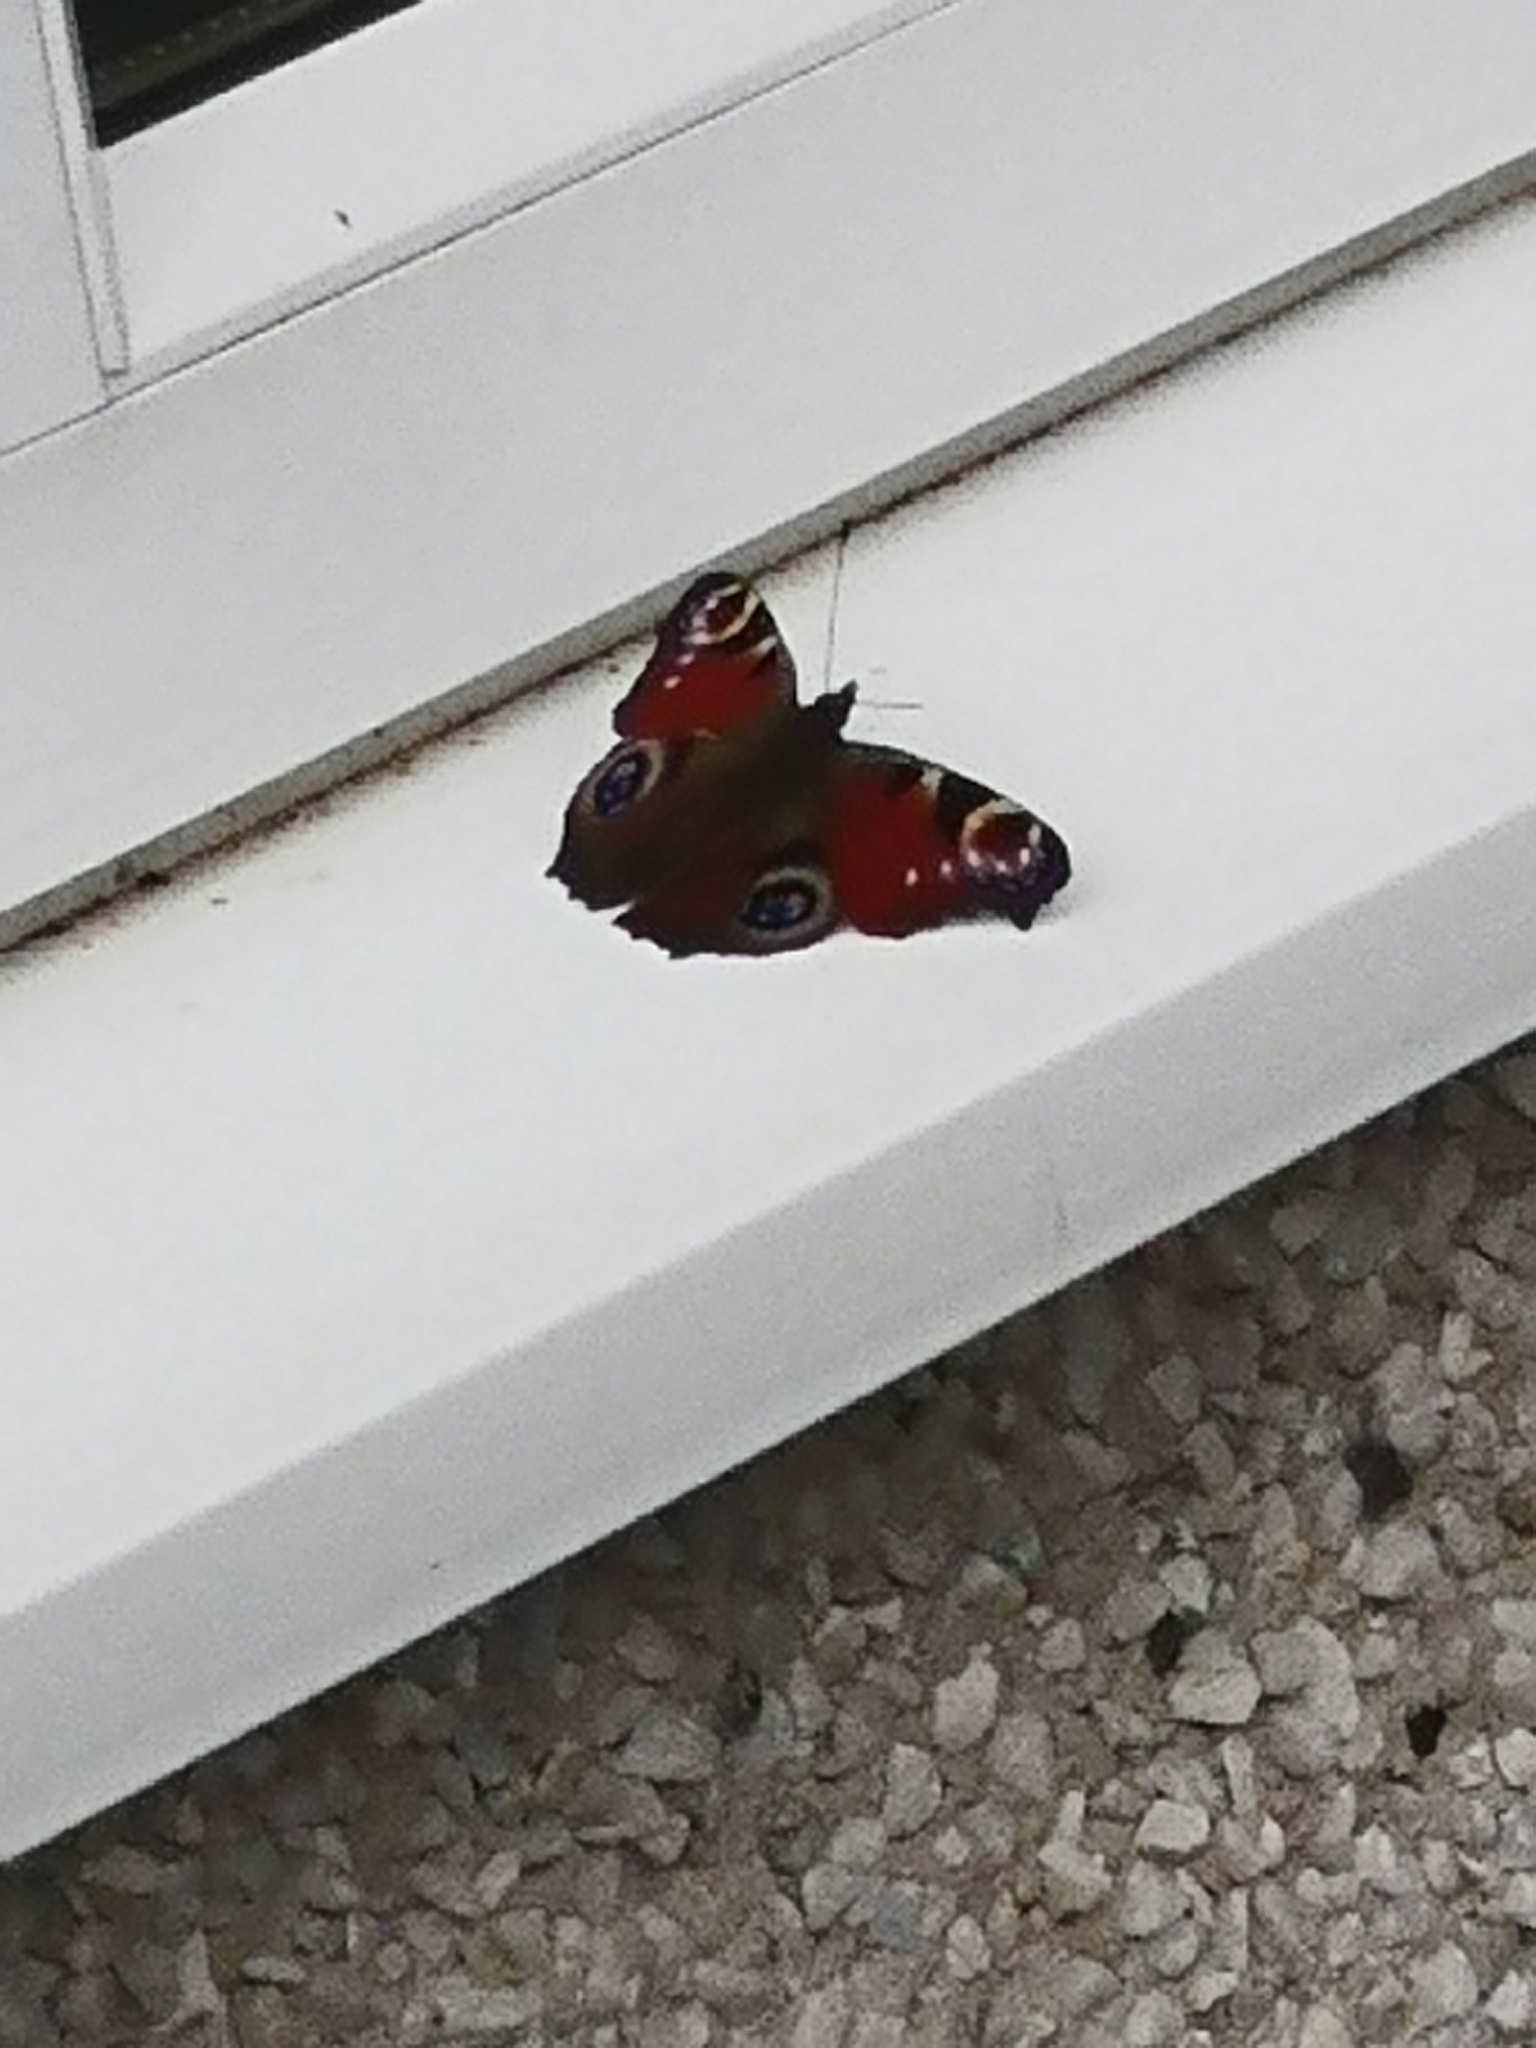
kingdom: Animalia
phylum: Arthropoda
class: Insecta
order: Lepidoptera
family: Nymphalidae
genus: Aglais
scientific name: Aglais io
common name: Peacock
